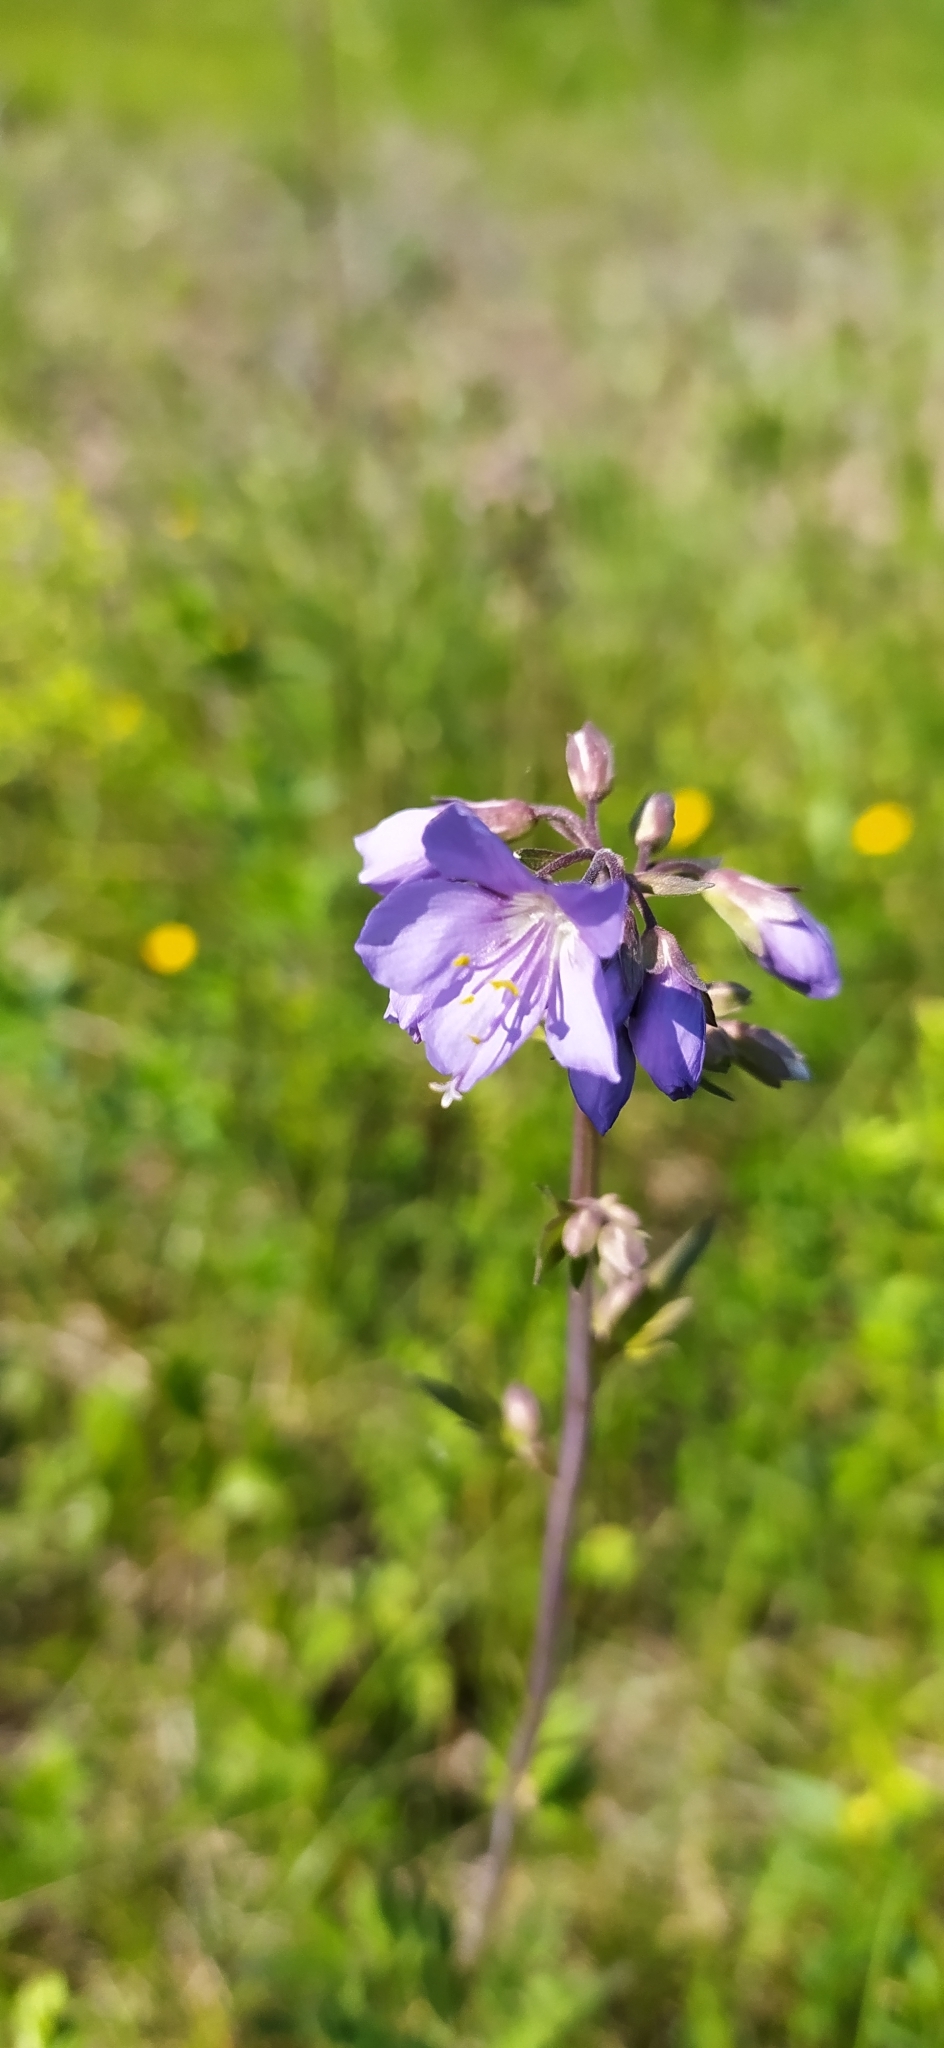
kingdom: Plantae
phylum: Tracheophyta
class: Magnoliopsida
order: Ericales
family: Polemoniaceae
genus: Polemonium
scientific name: Polemonium caeruleum
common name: Jacob's-ladder
